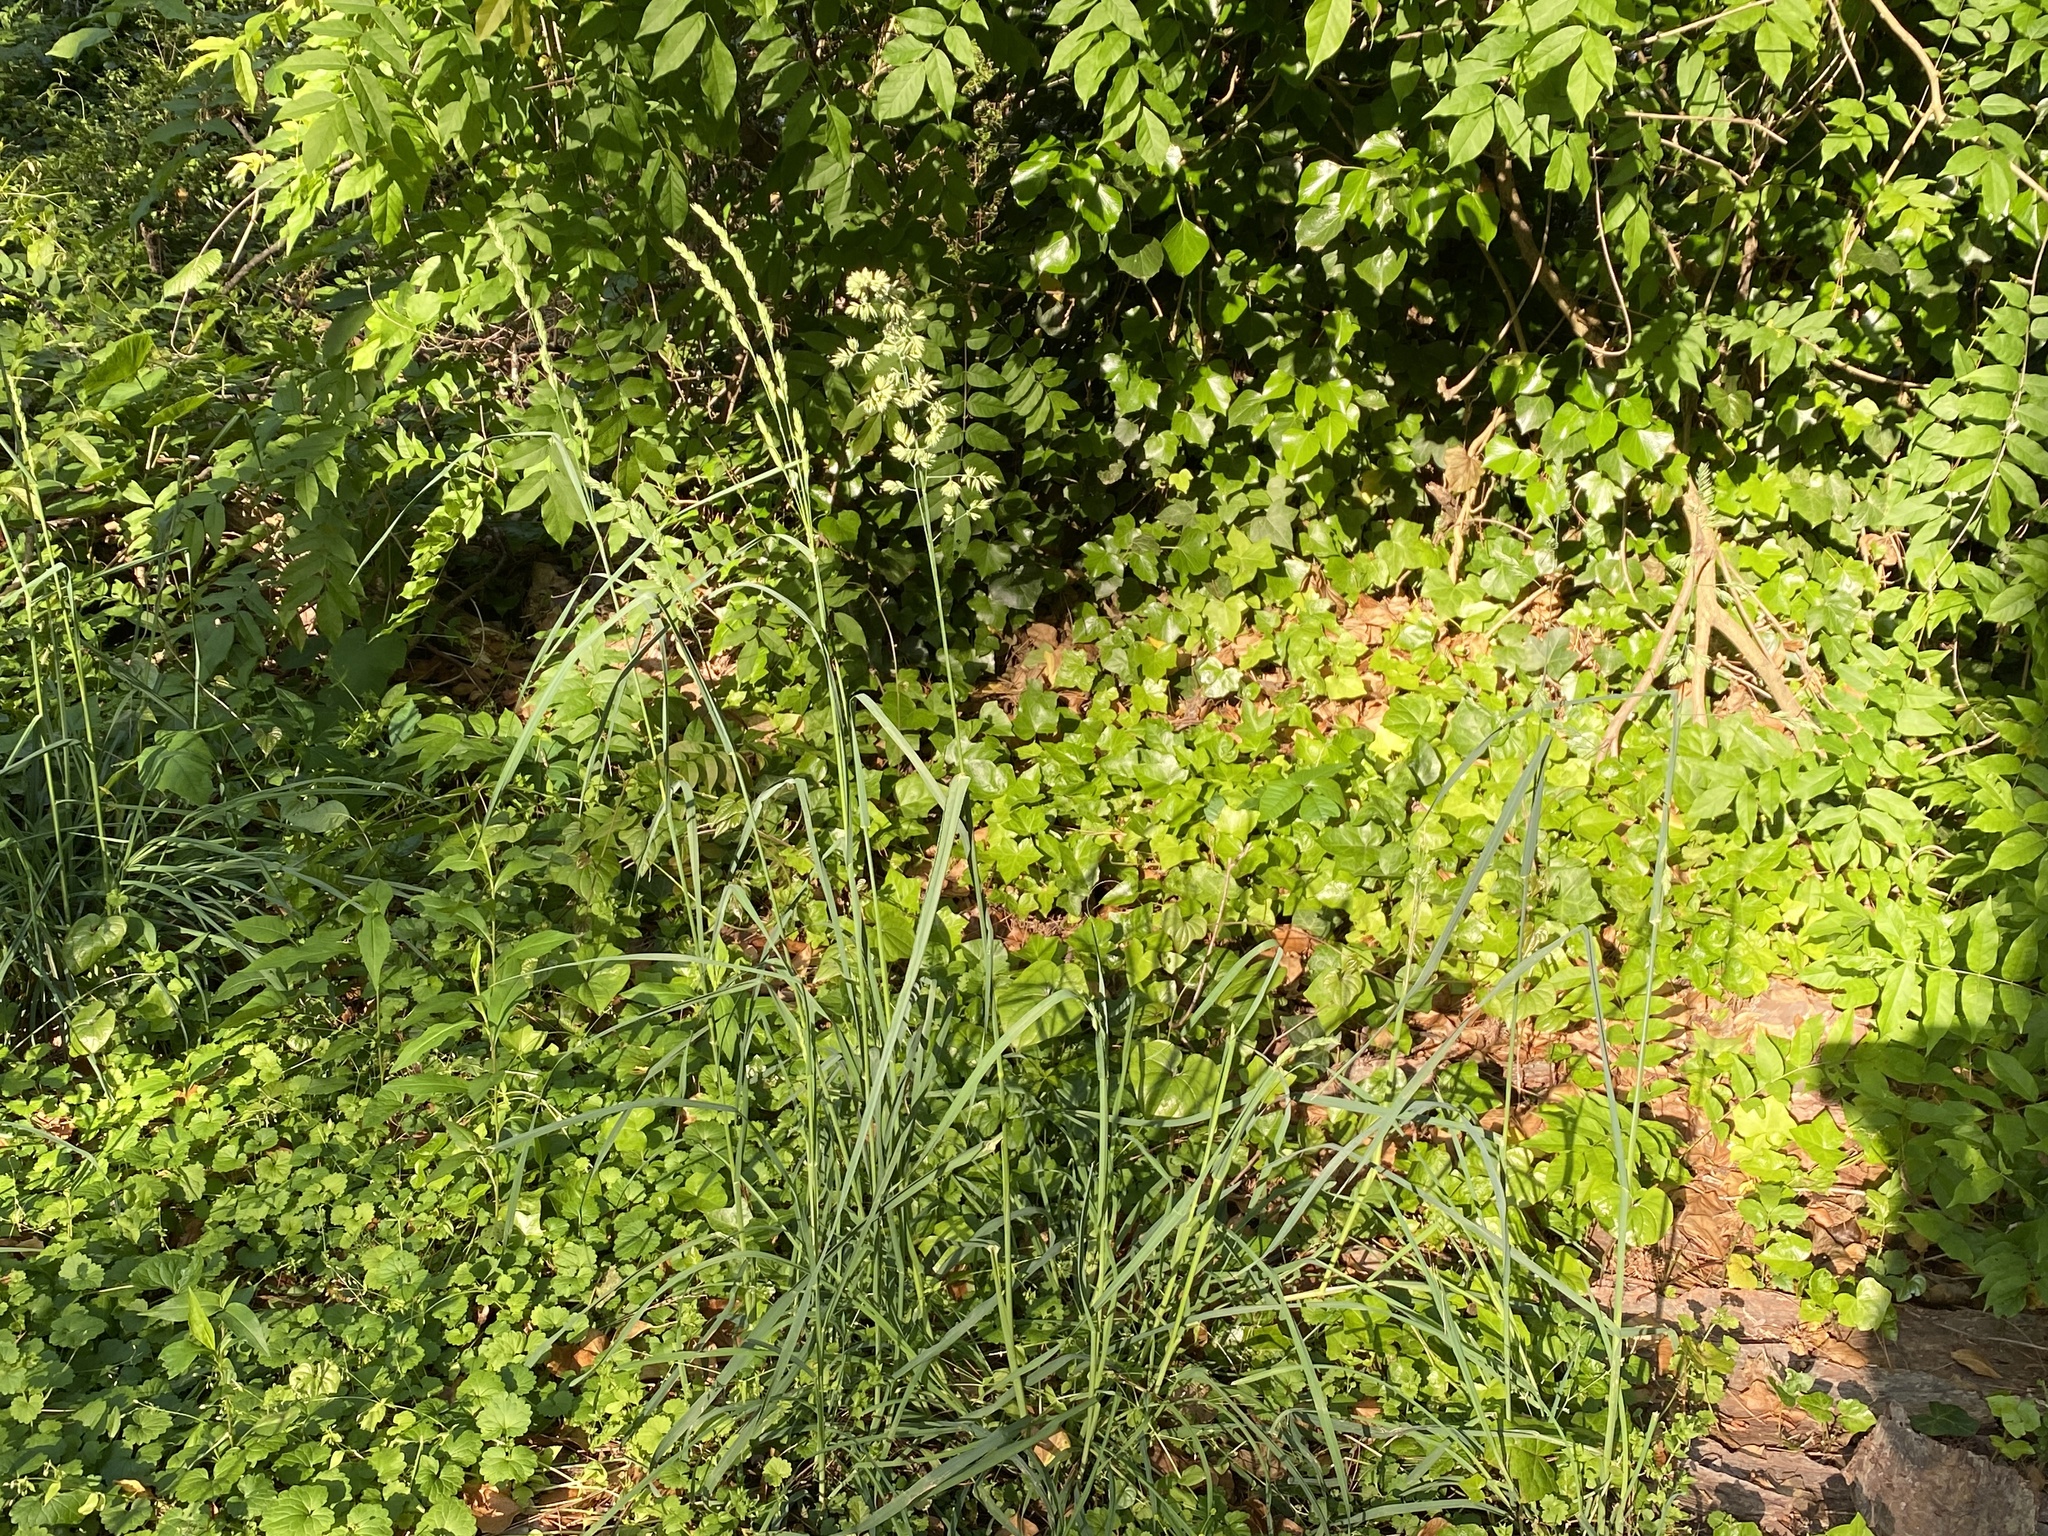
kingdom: Plantae
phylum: Tracheophyta
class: Liliopsida
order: Poales
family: Poaceae
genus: Dactylis
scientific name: Dactylis glomerata
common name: Orchardgrass
